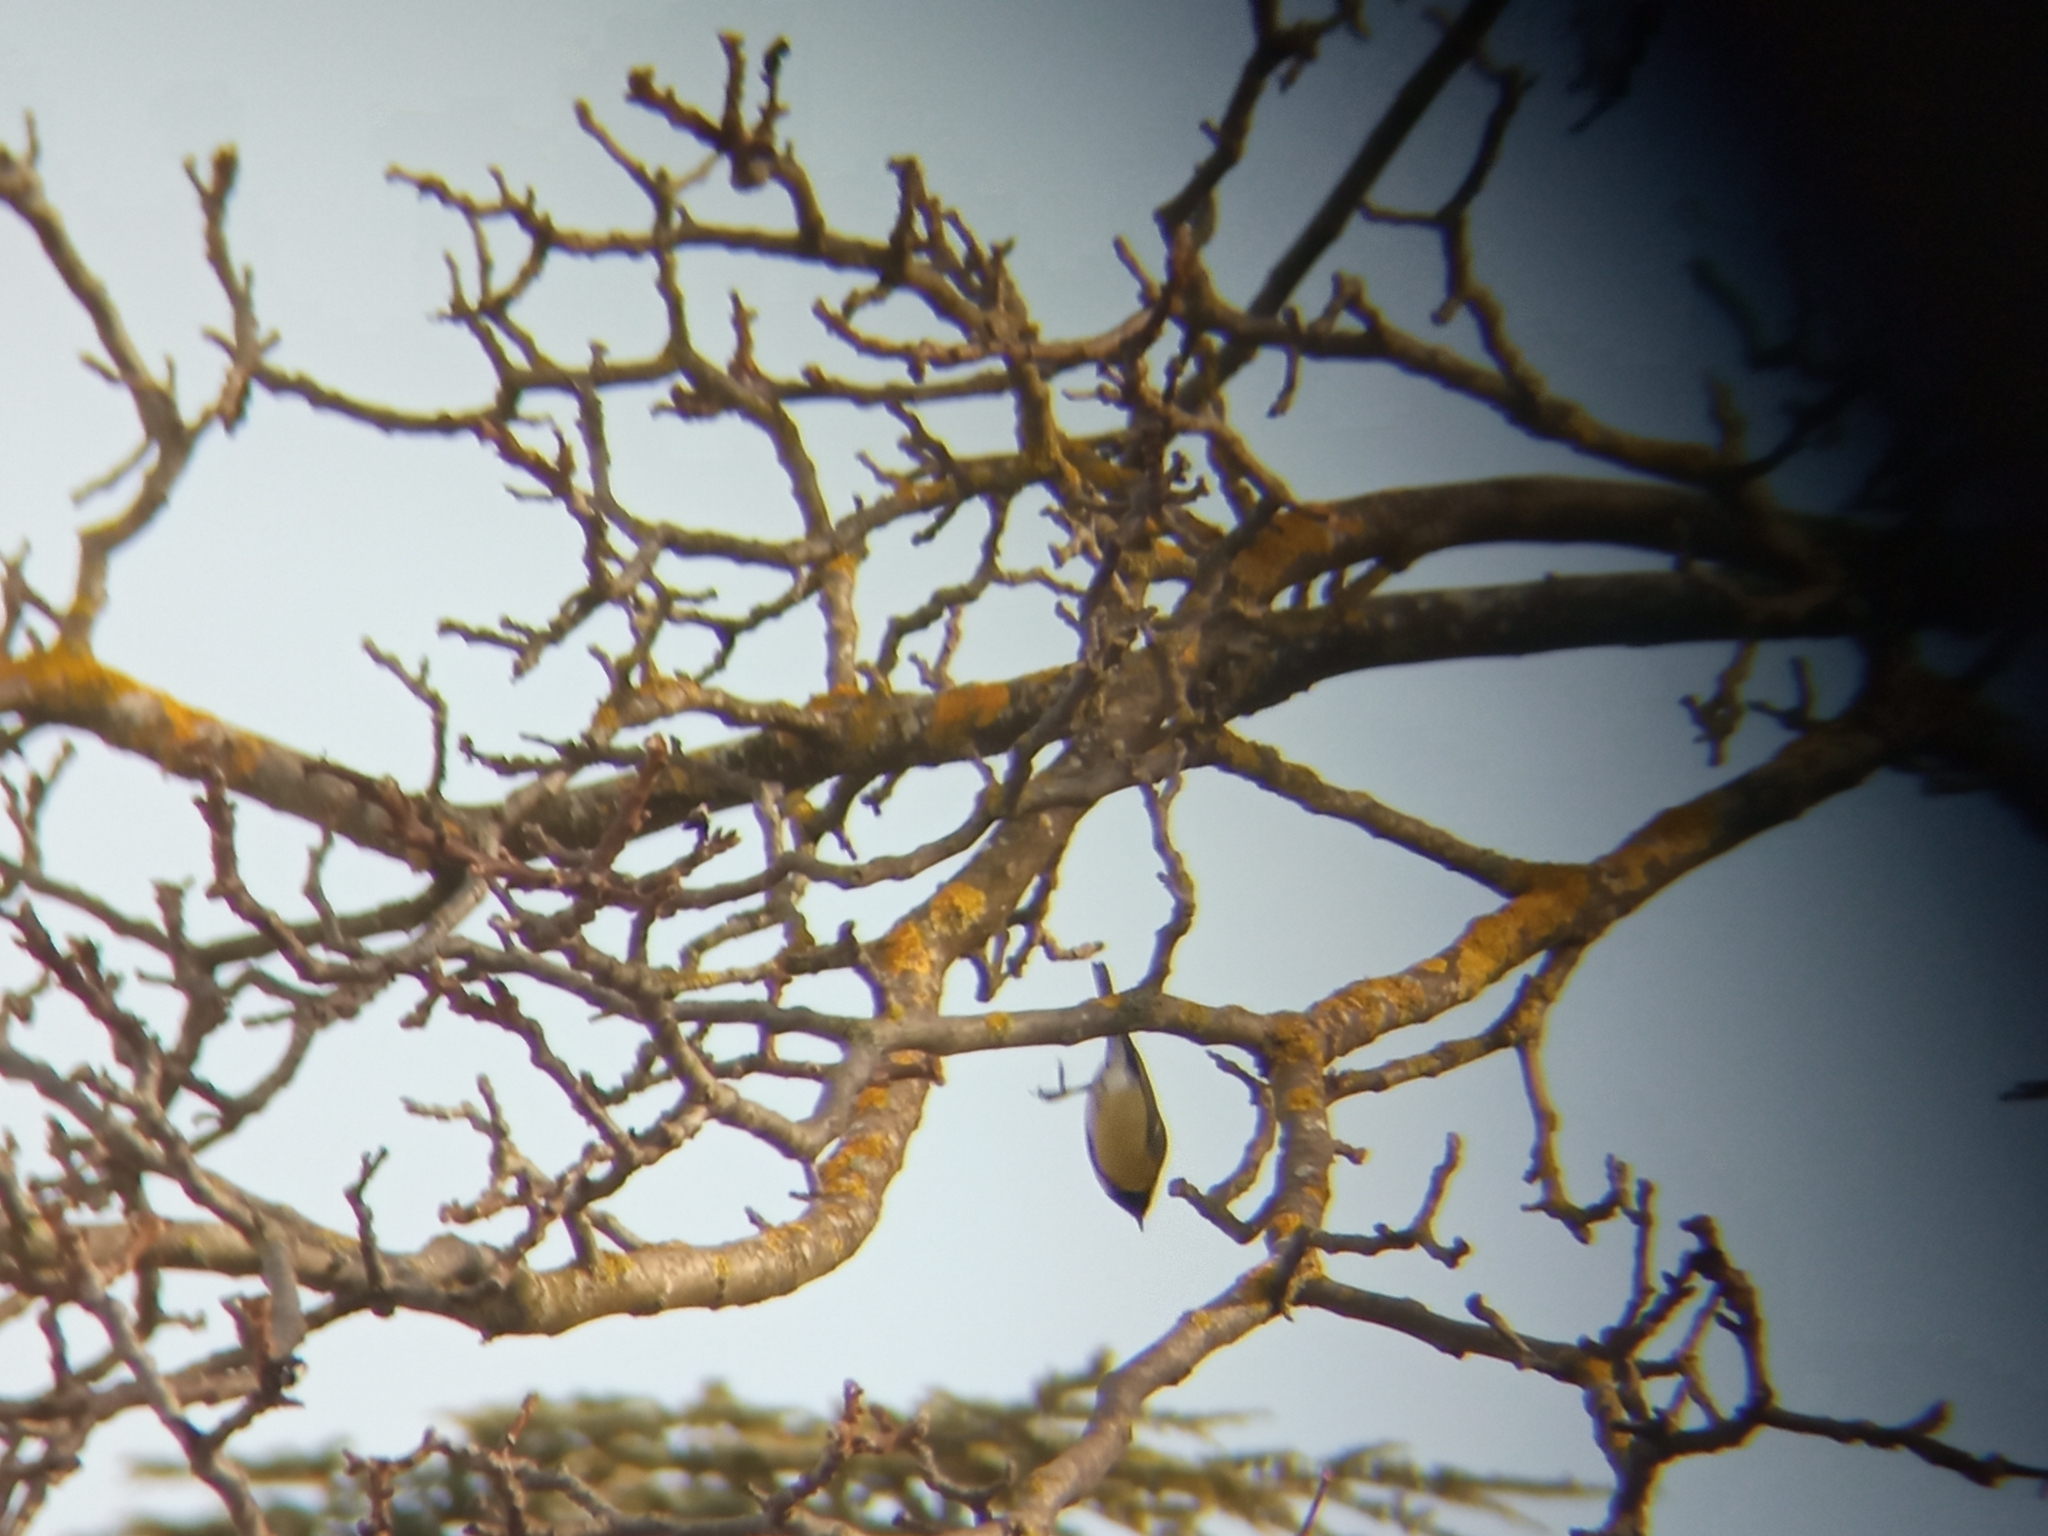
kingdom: Animalia
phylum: Chordata
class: Aves
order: Passeriformes
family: Paridae
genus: Parus
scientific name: Parus major
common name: Great tit
